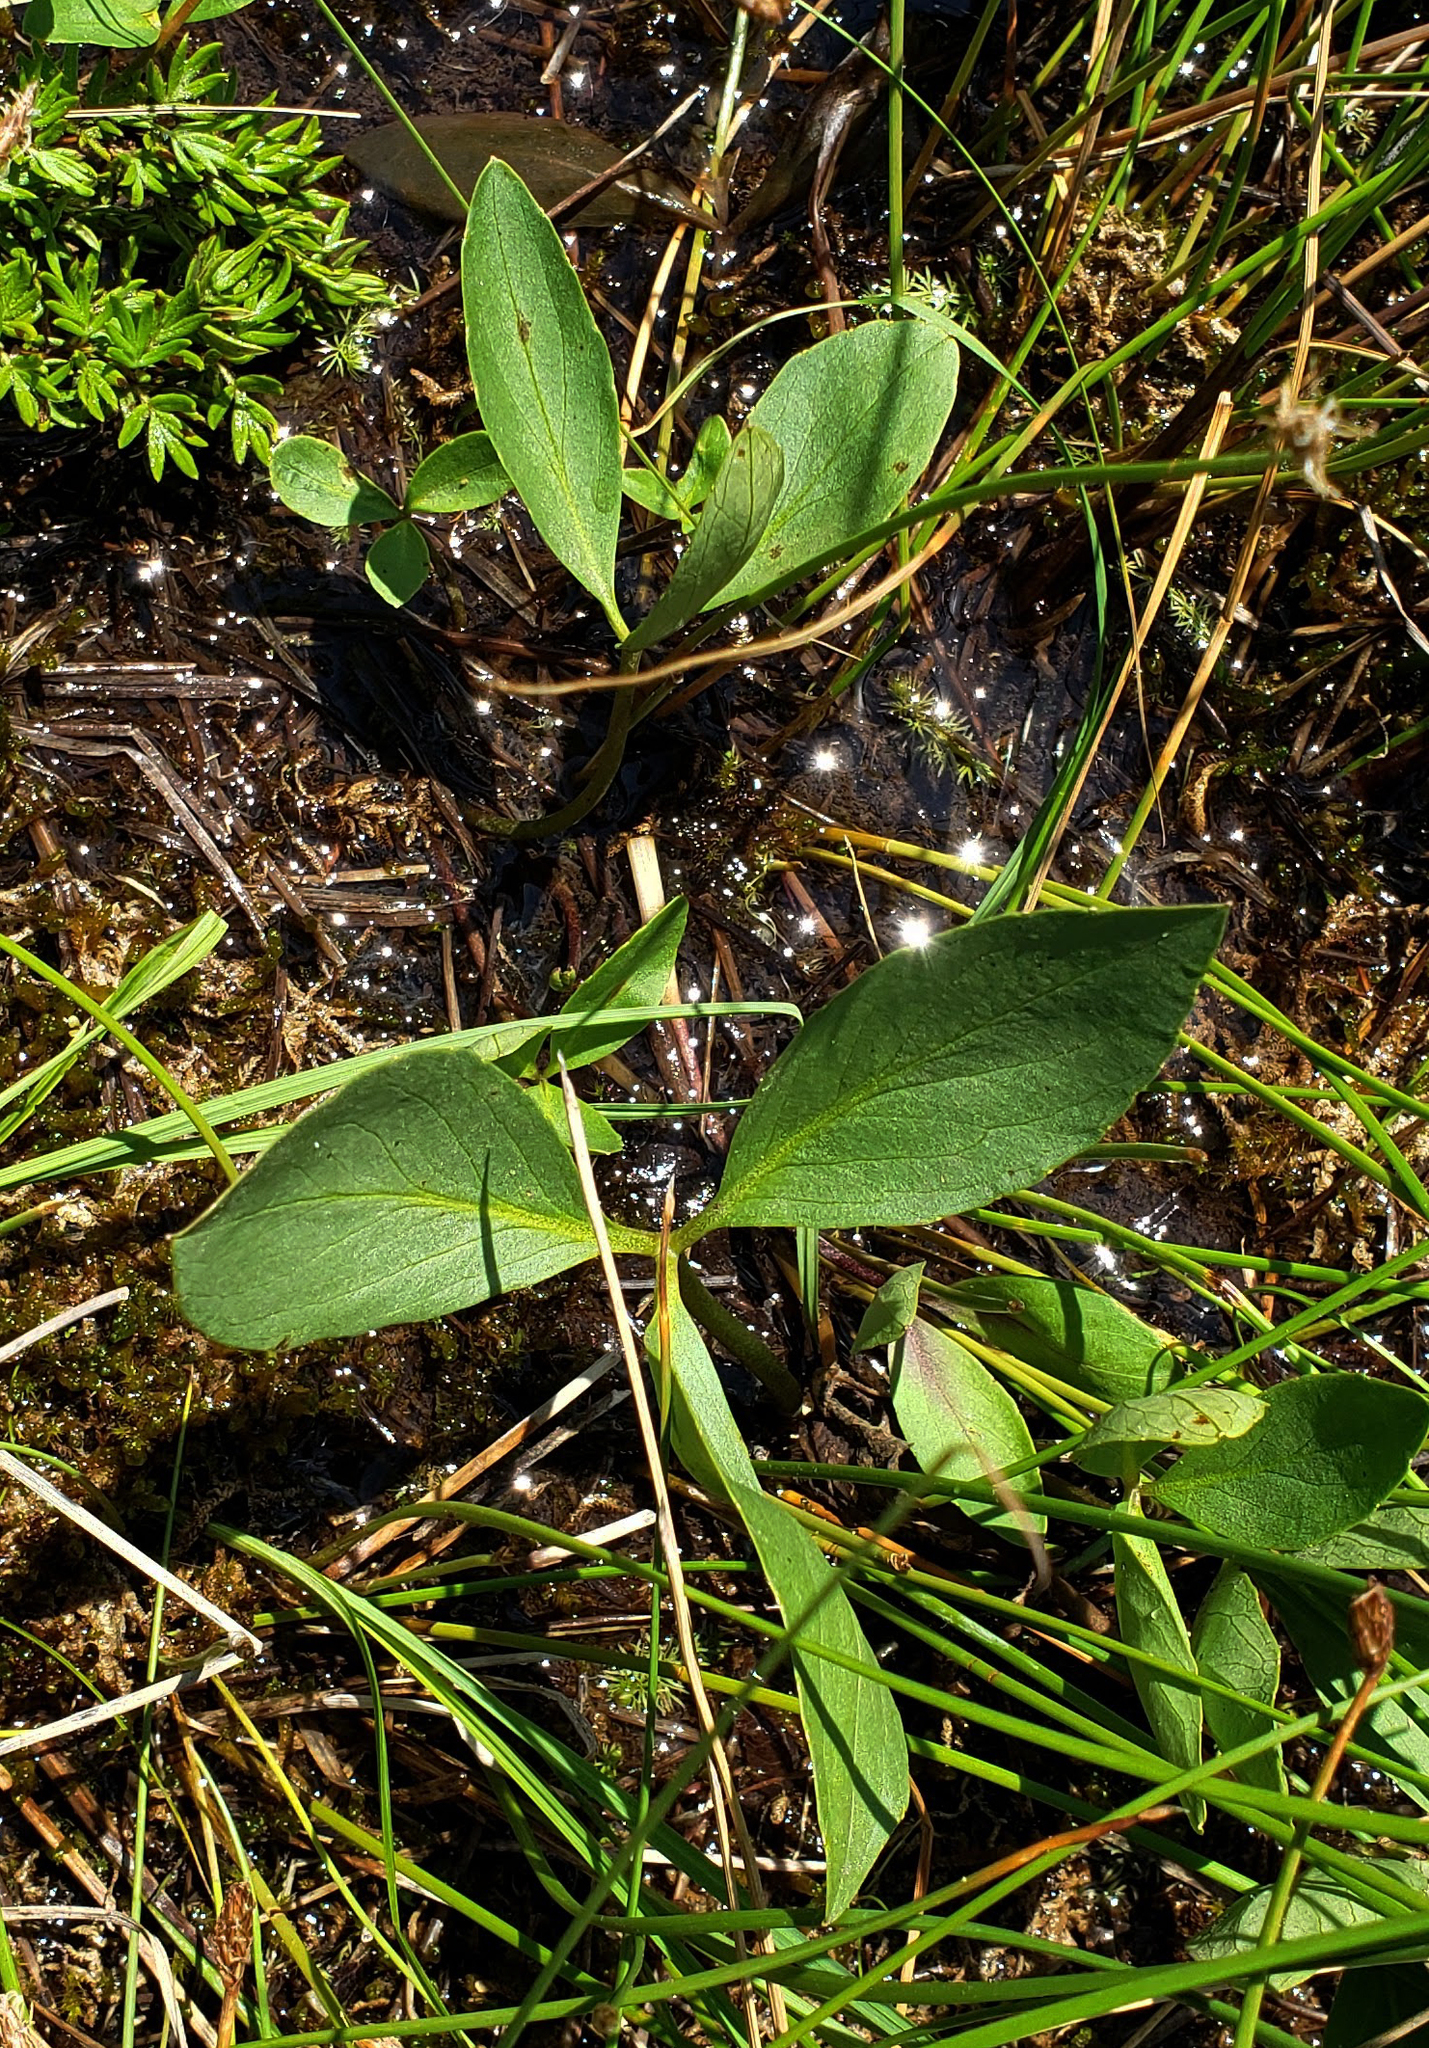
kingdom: Plantae
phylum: Tracheophyta
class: Magnoliopsida
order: Asterales
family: Menyanthaceae
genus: Menyanthes
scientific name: Menyanthes trifoliata
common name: Bogbean
